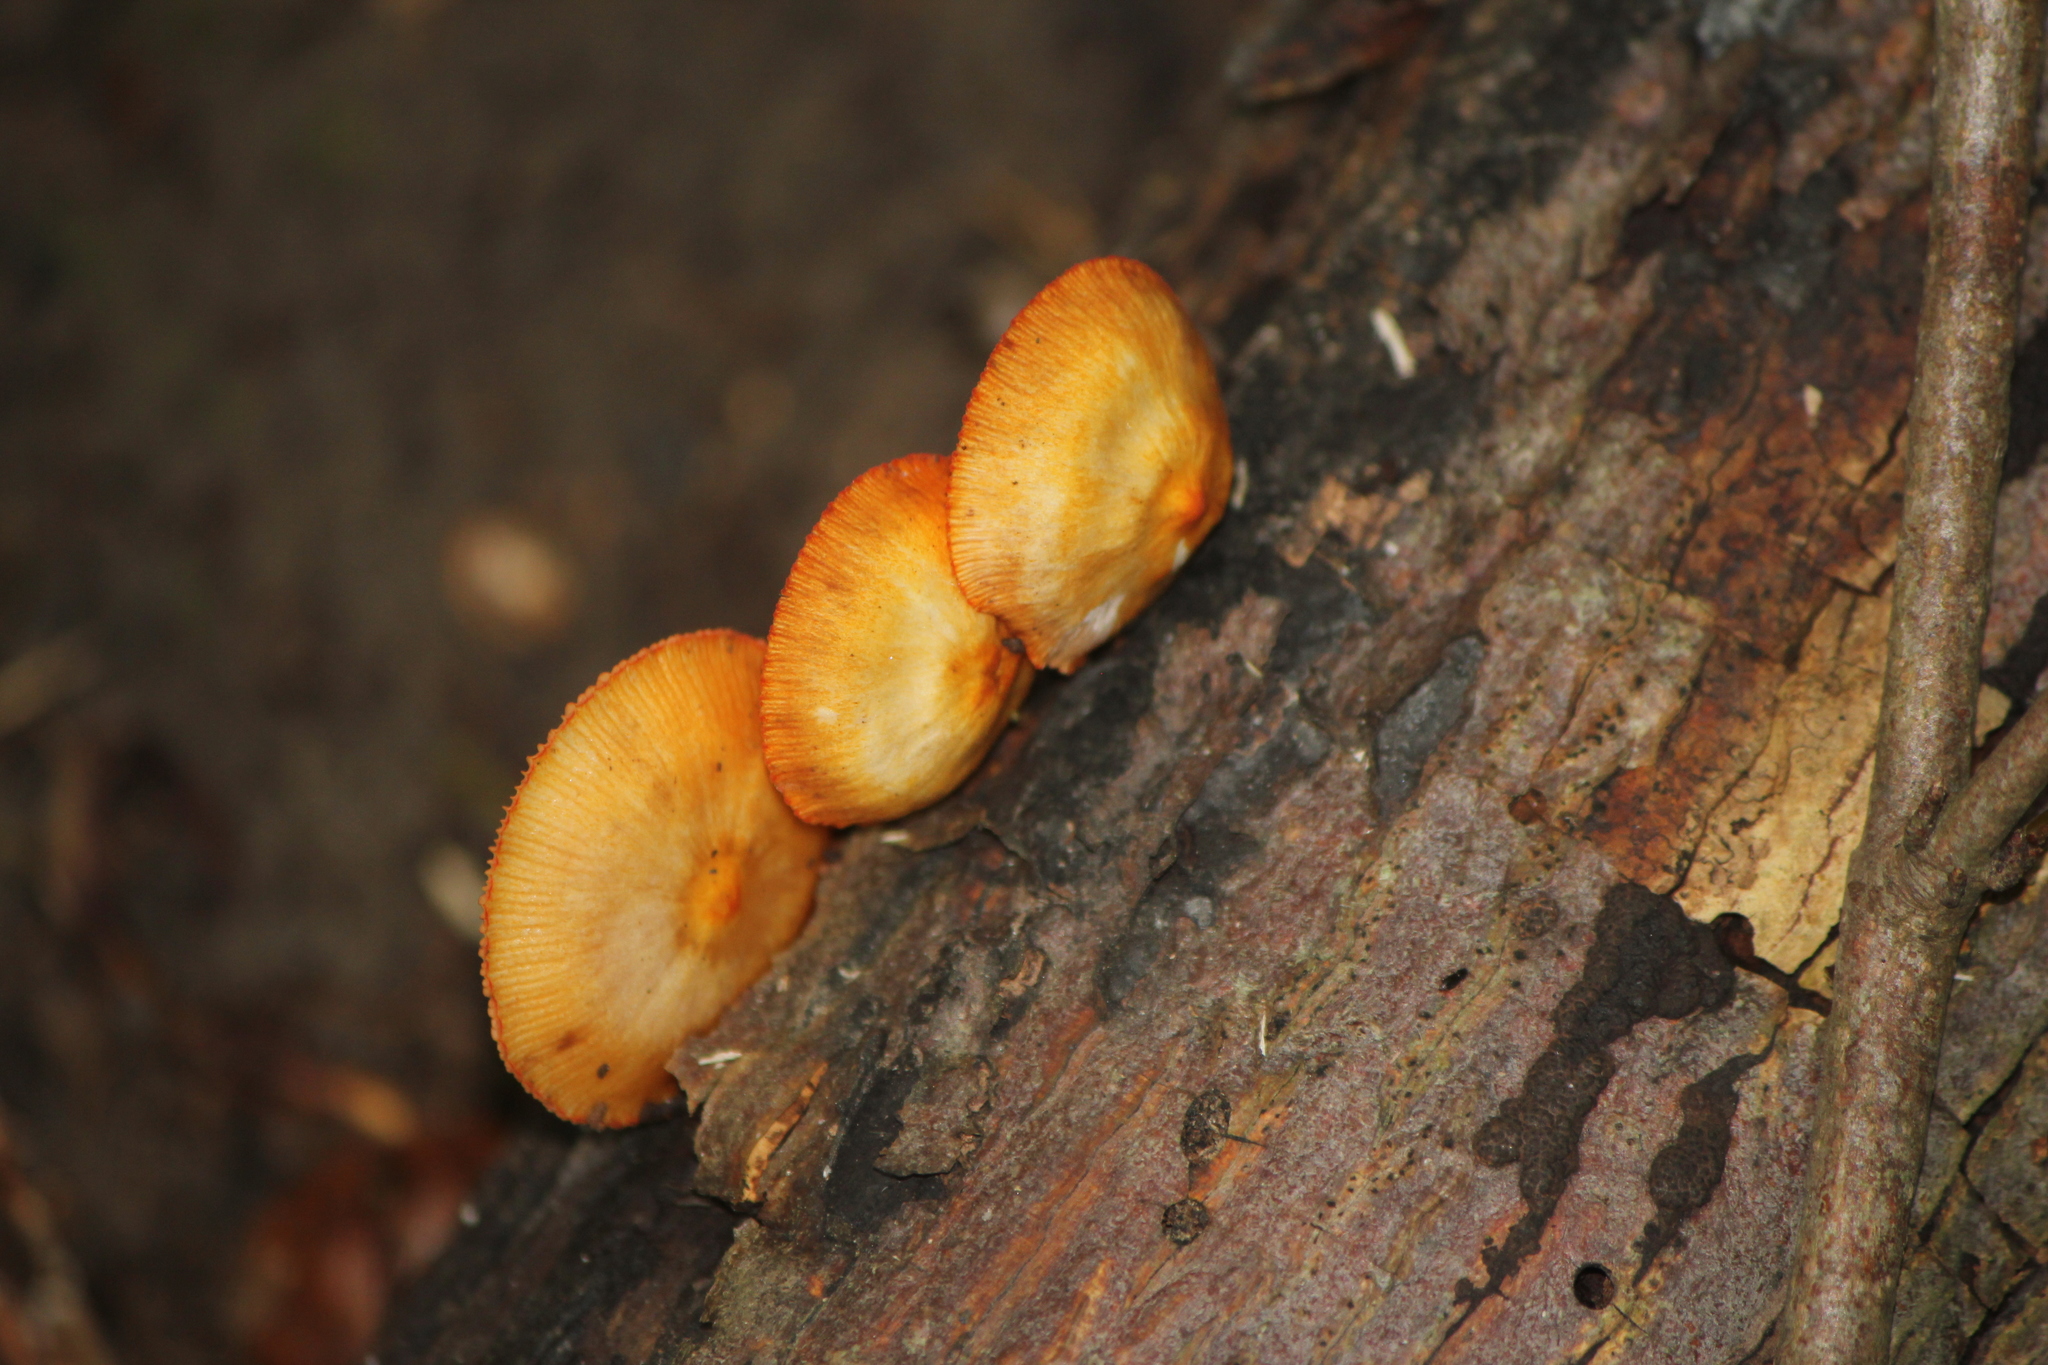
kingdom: Fungi
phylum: Basidiomycota
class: Agaricomycetes
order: Agaricales
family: Mycenaceae
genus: Mycena
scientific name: Mycena leaiana
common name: Orange mycena
